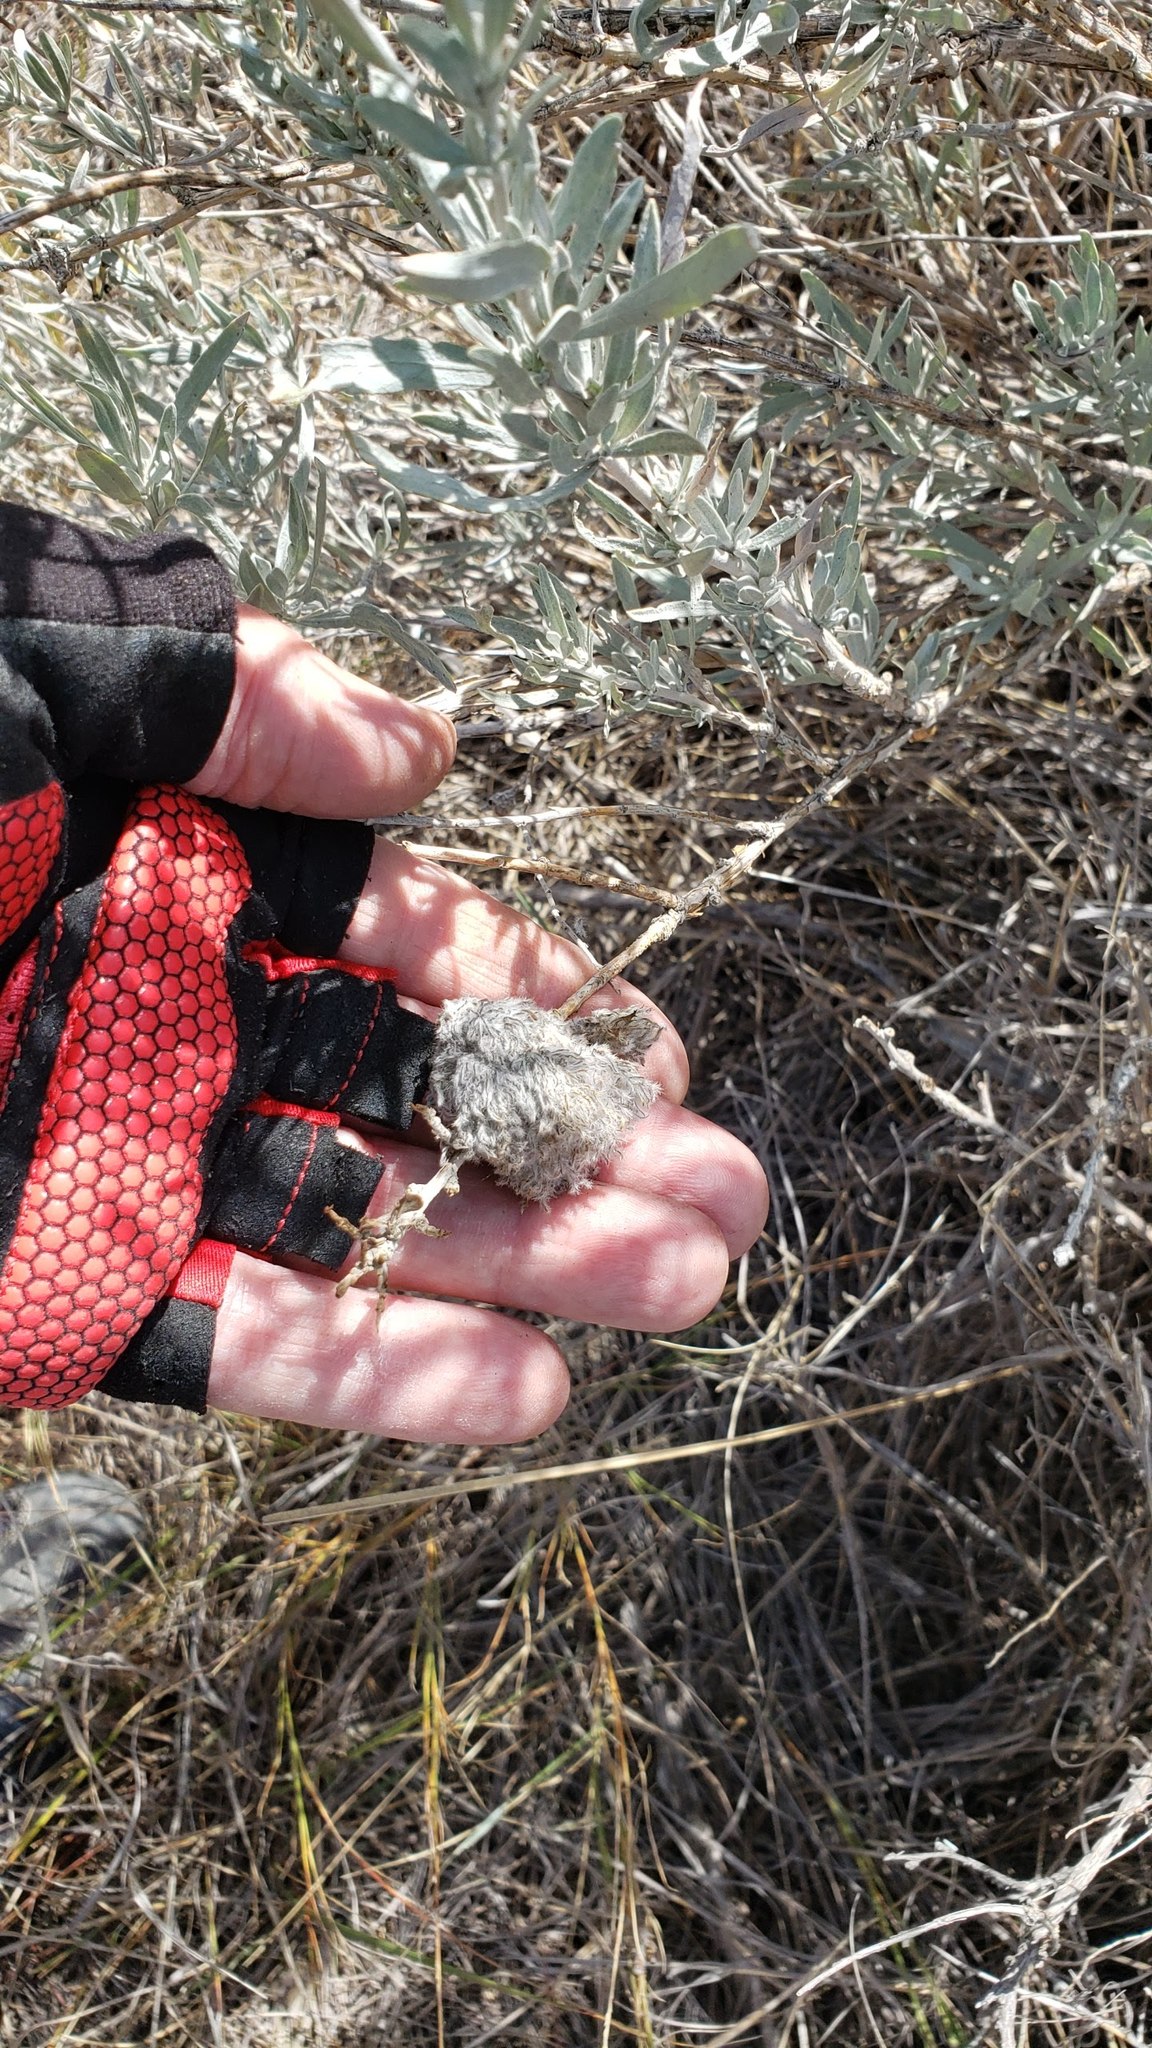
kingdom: Animalia
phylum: Arthropoda
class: Insecta
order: Diptera
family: Cecidomyiidae
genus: Rhopalomyia
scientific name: Rhopalomyia medusirrasa
